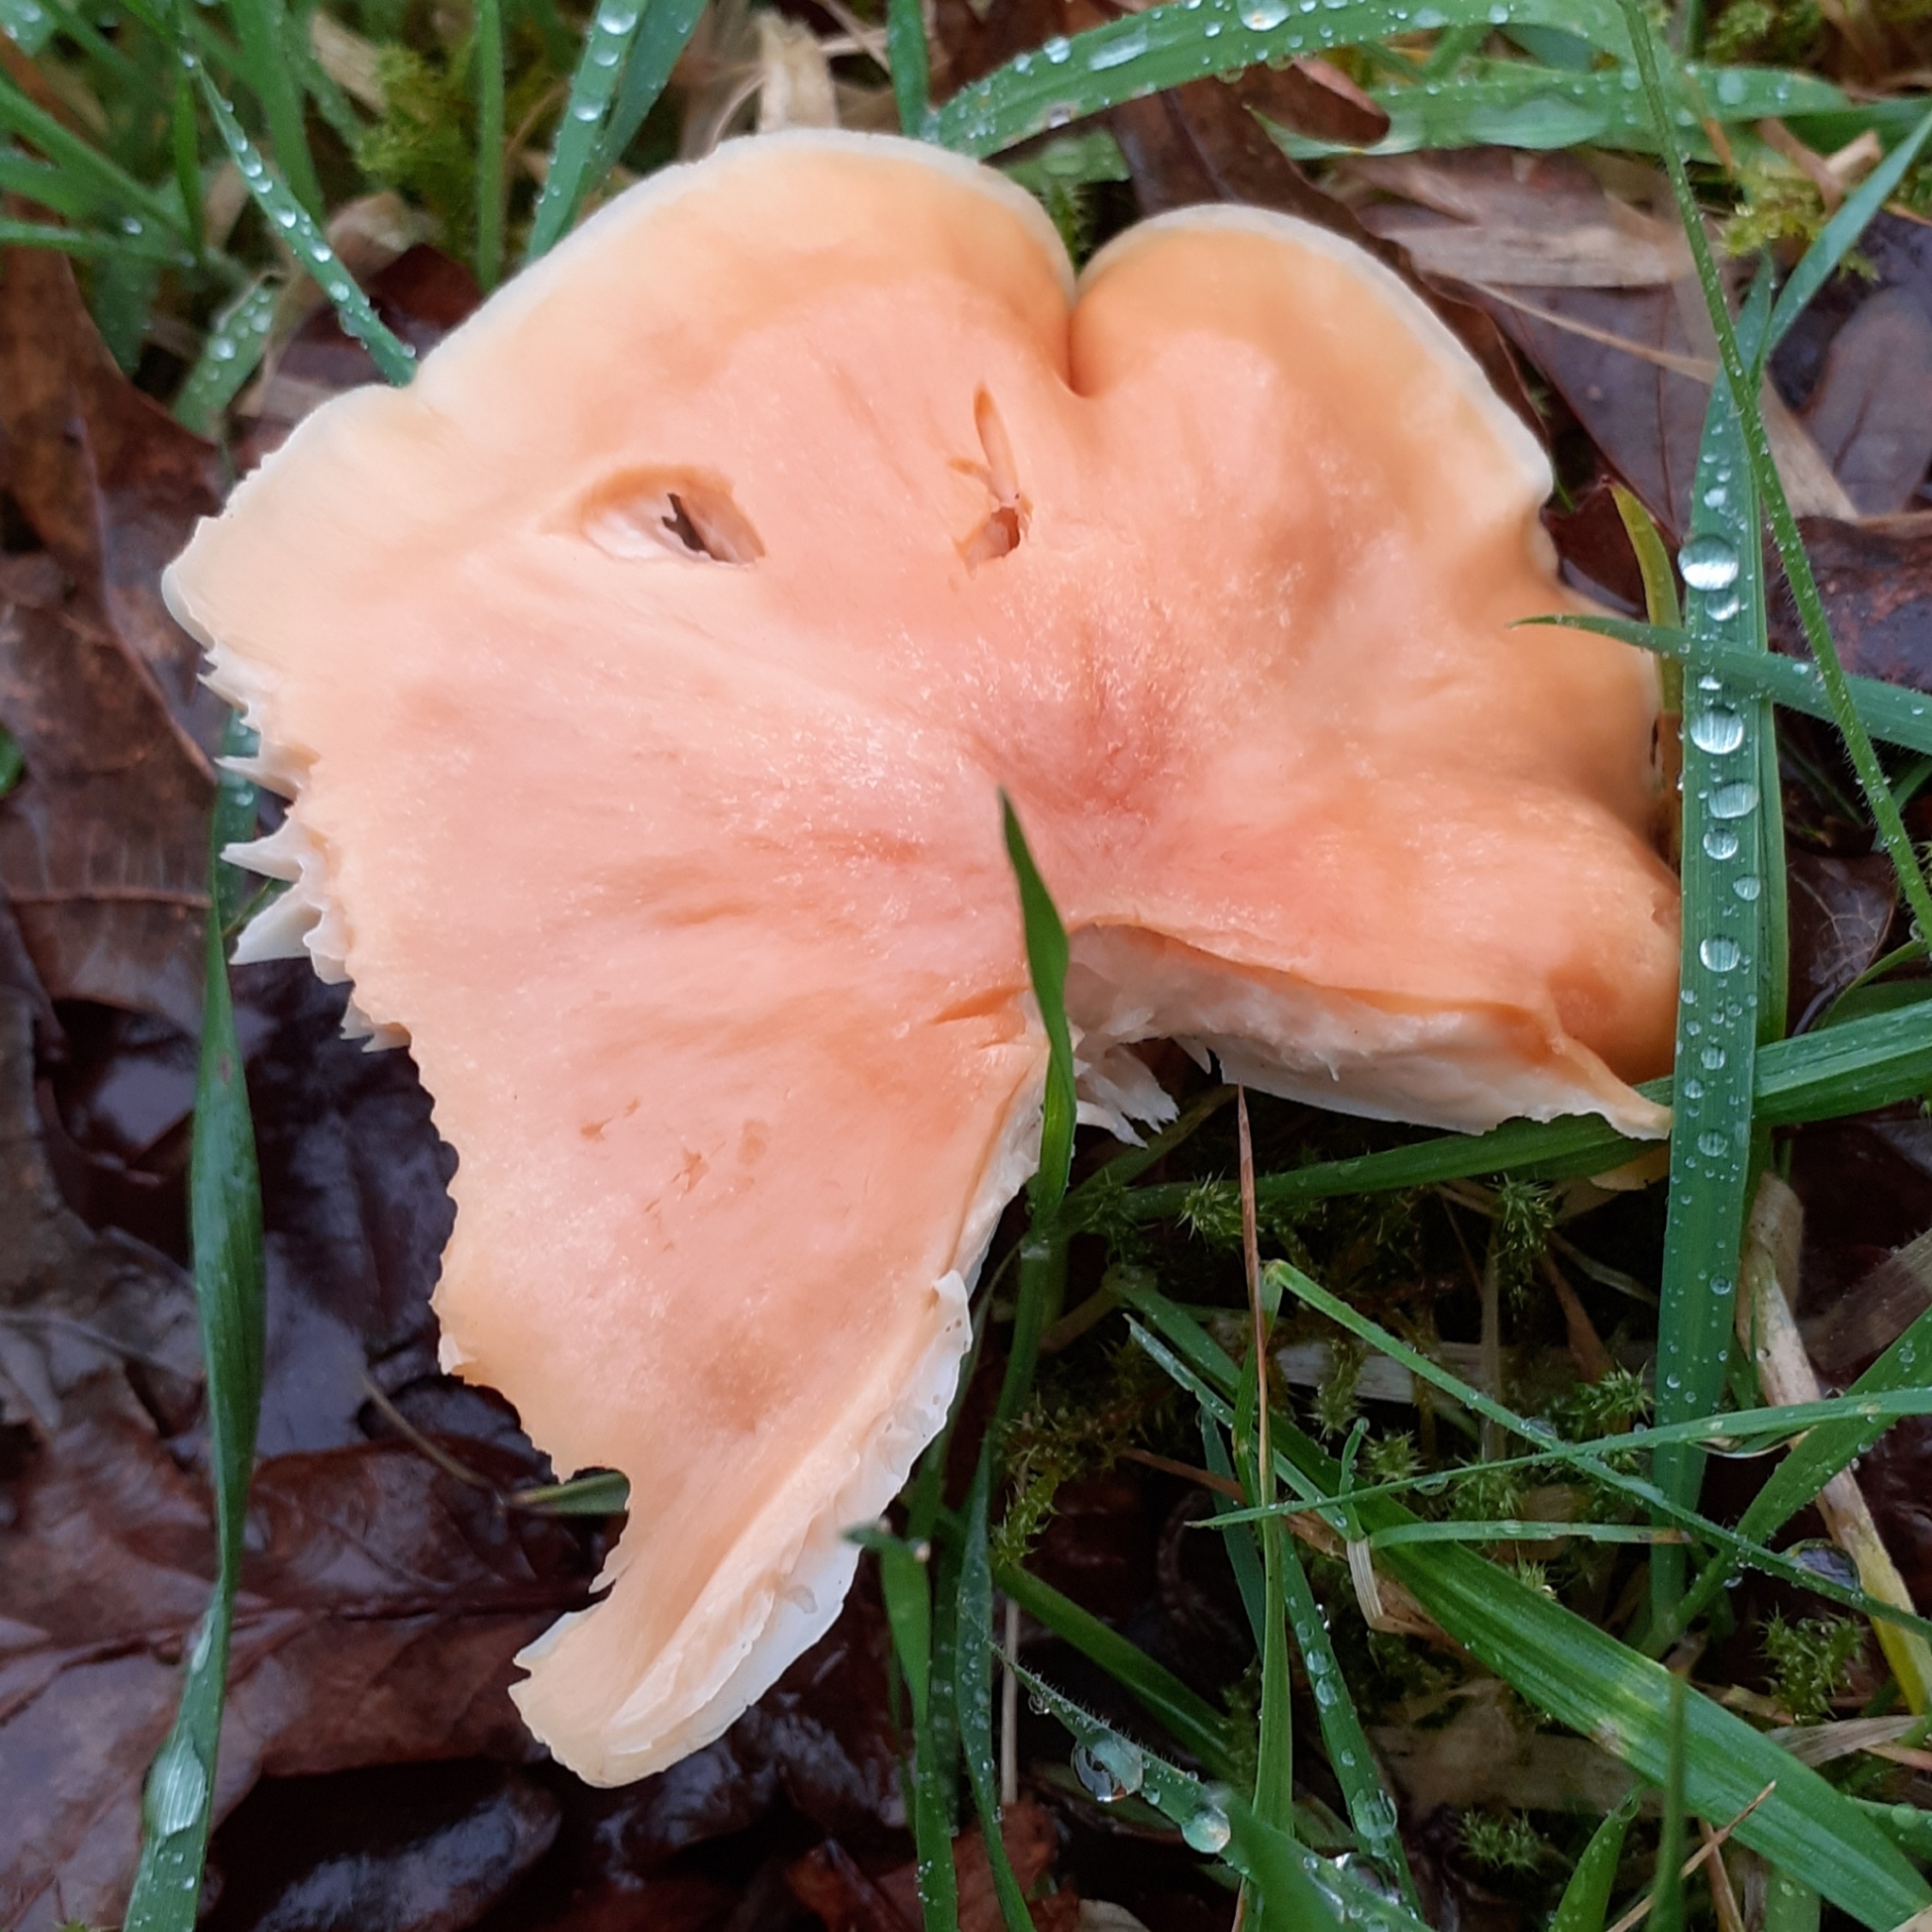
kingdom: Fungi
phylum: Basidiomycota
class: Agaricomycetes
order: Agaricales
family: Hygrophoraceae
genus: Cuphophyllus
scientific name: Cuphophyllus pratensis
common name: Meadow waxcap
